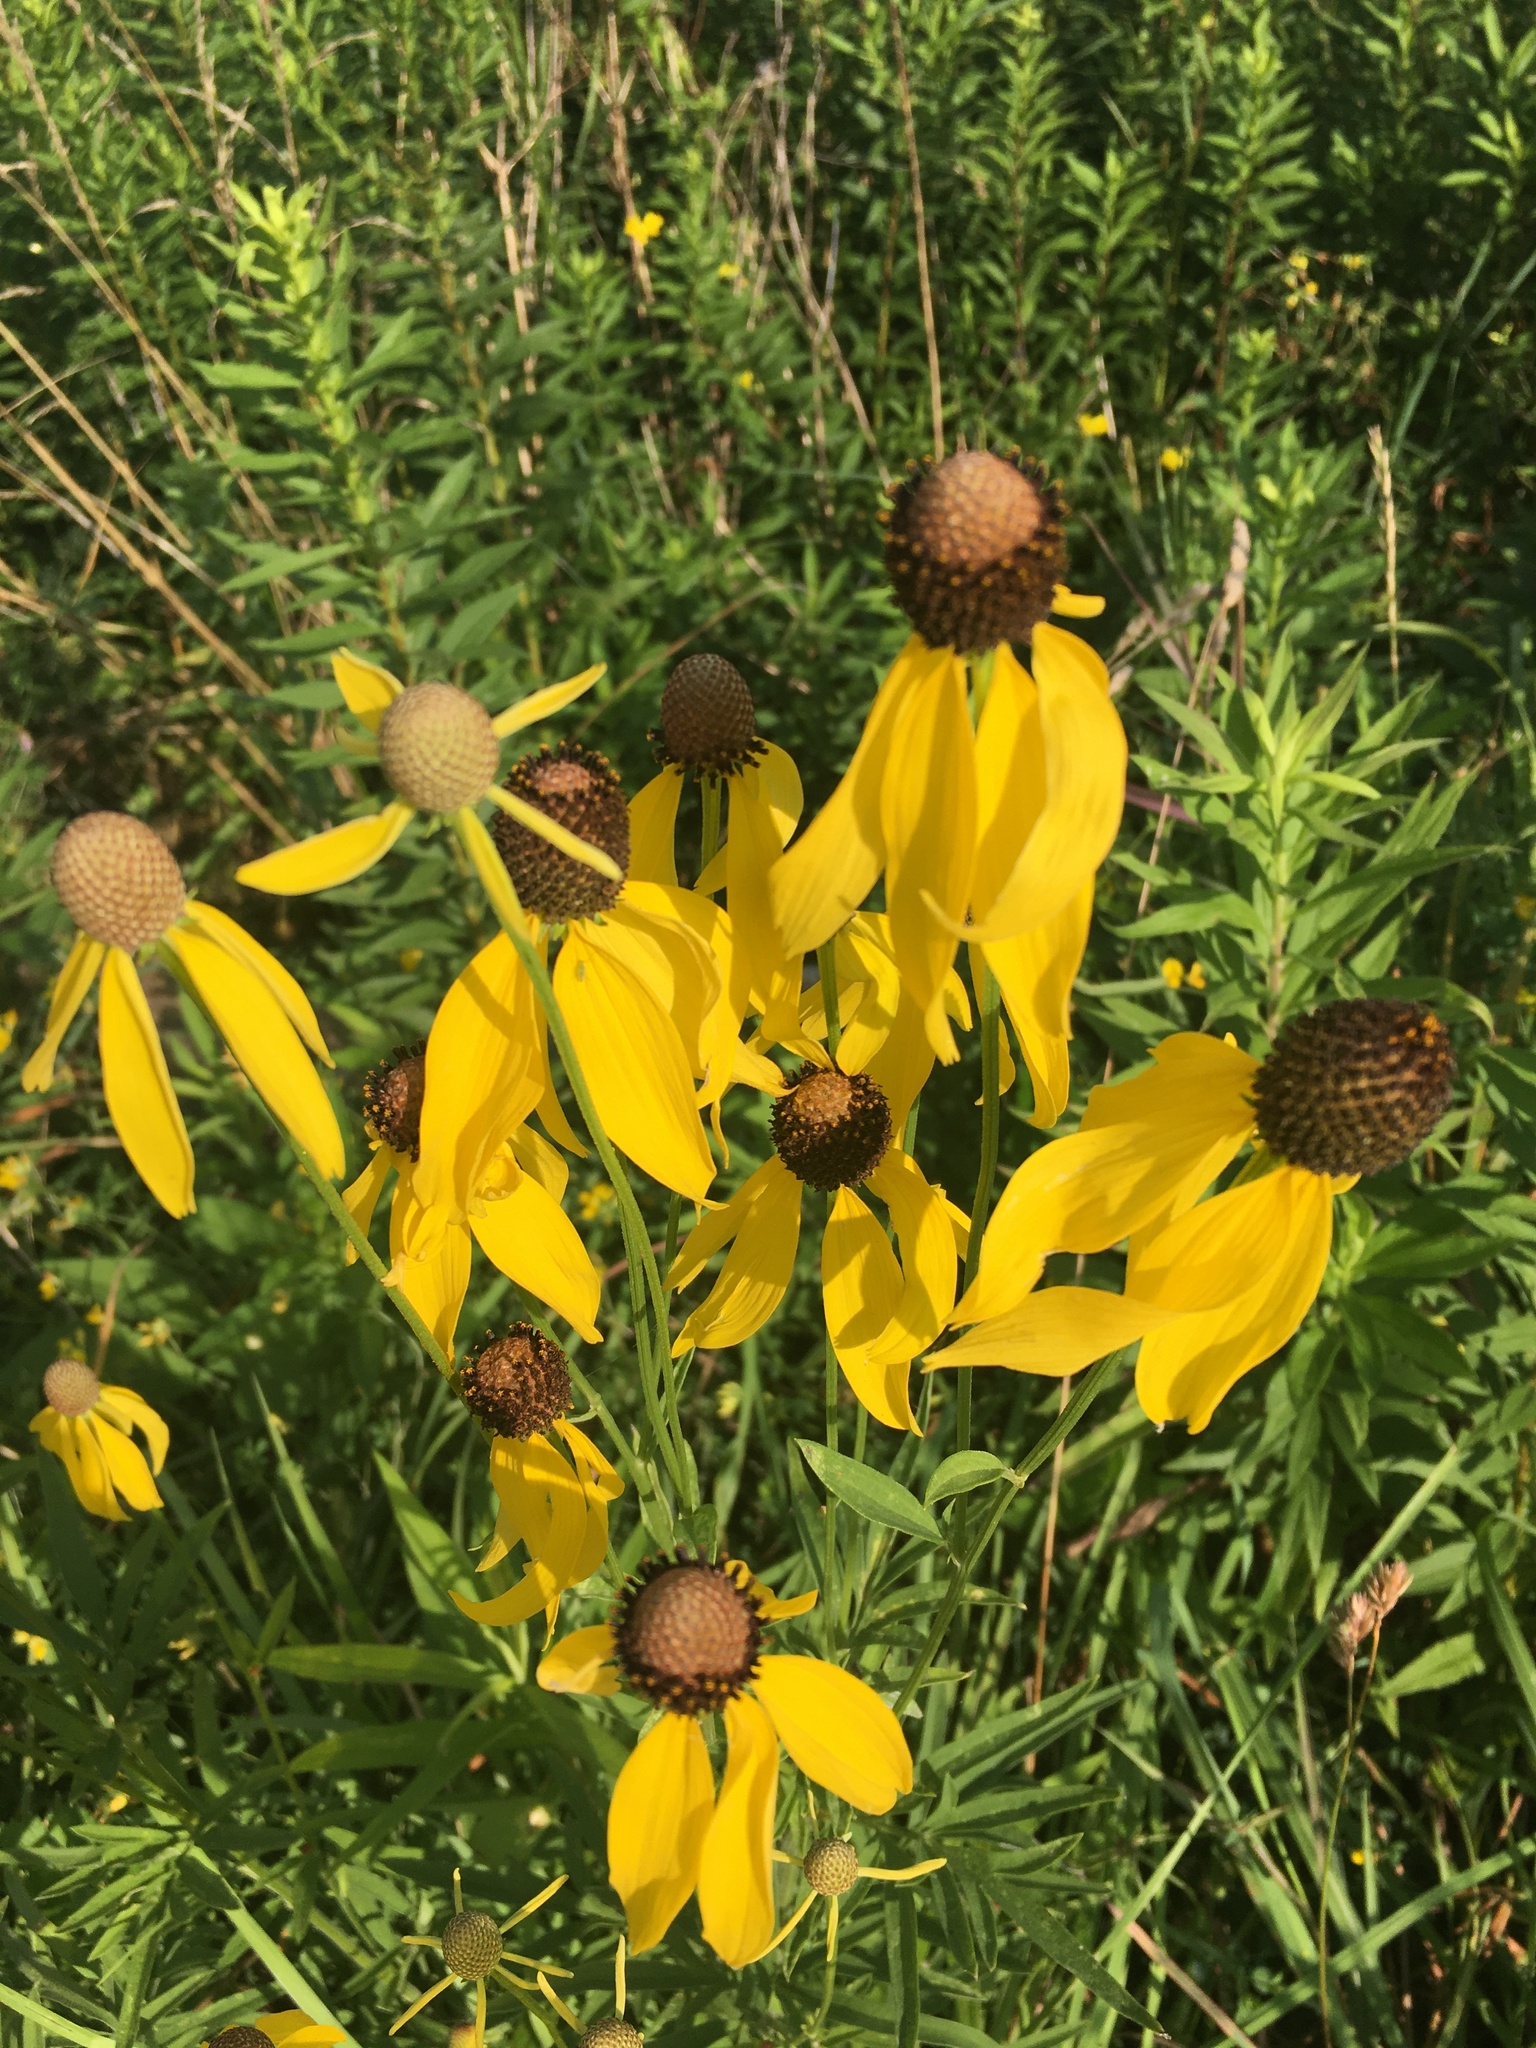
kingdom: Plantae
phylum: Tracheophyta
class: Magnoliopsida
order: Asterales
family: Asteraceae
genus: Ratibida
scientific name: Ratibida pinnata
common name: Drooping prairie-coneflower
